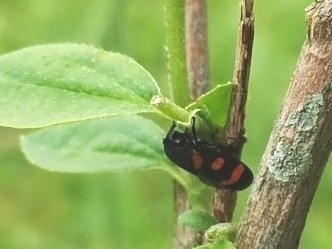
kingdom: Animalia
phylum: Arthropoda
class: Insecta
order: Hemiptera
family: Cercopidae
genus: Cercopis
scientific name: Cercopis vulnerata
